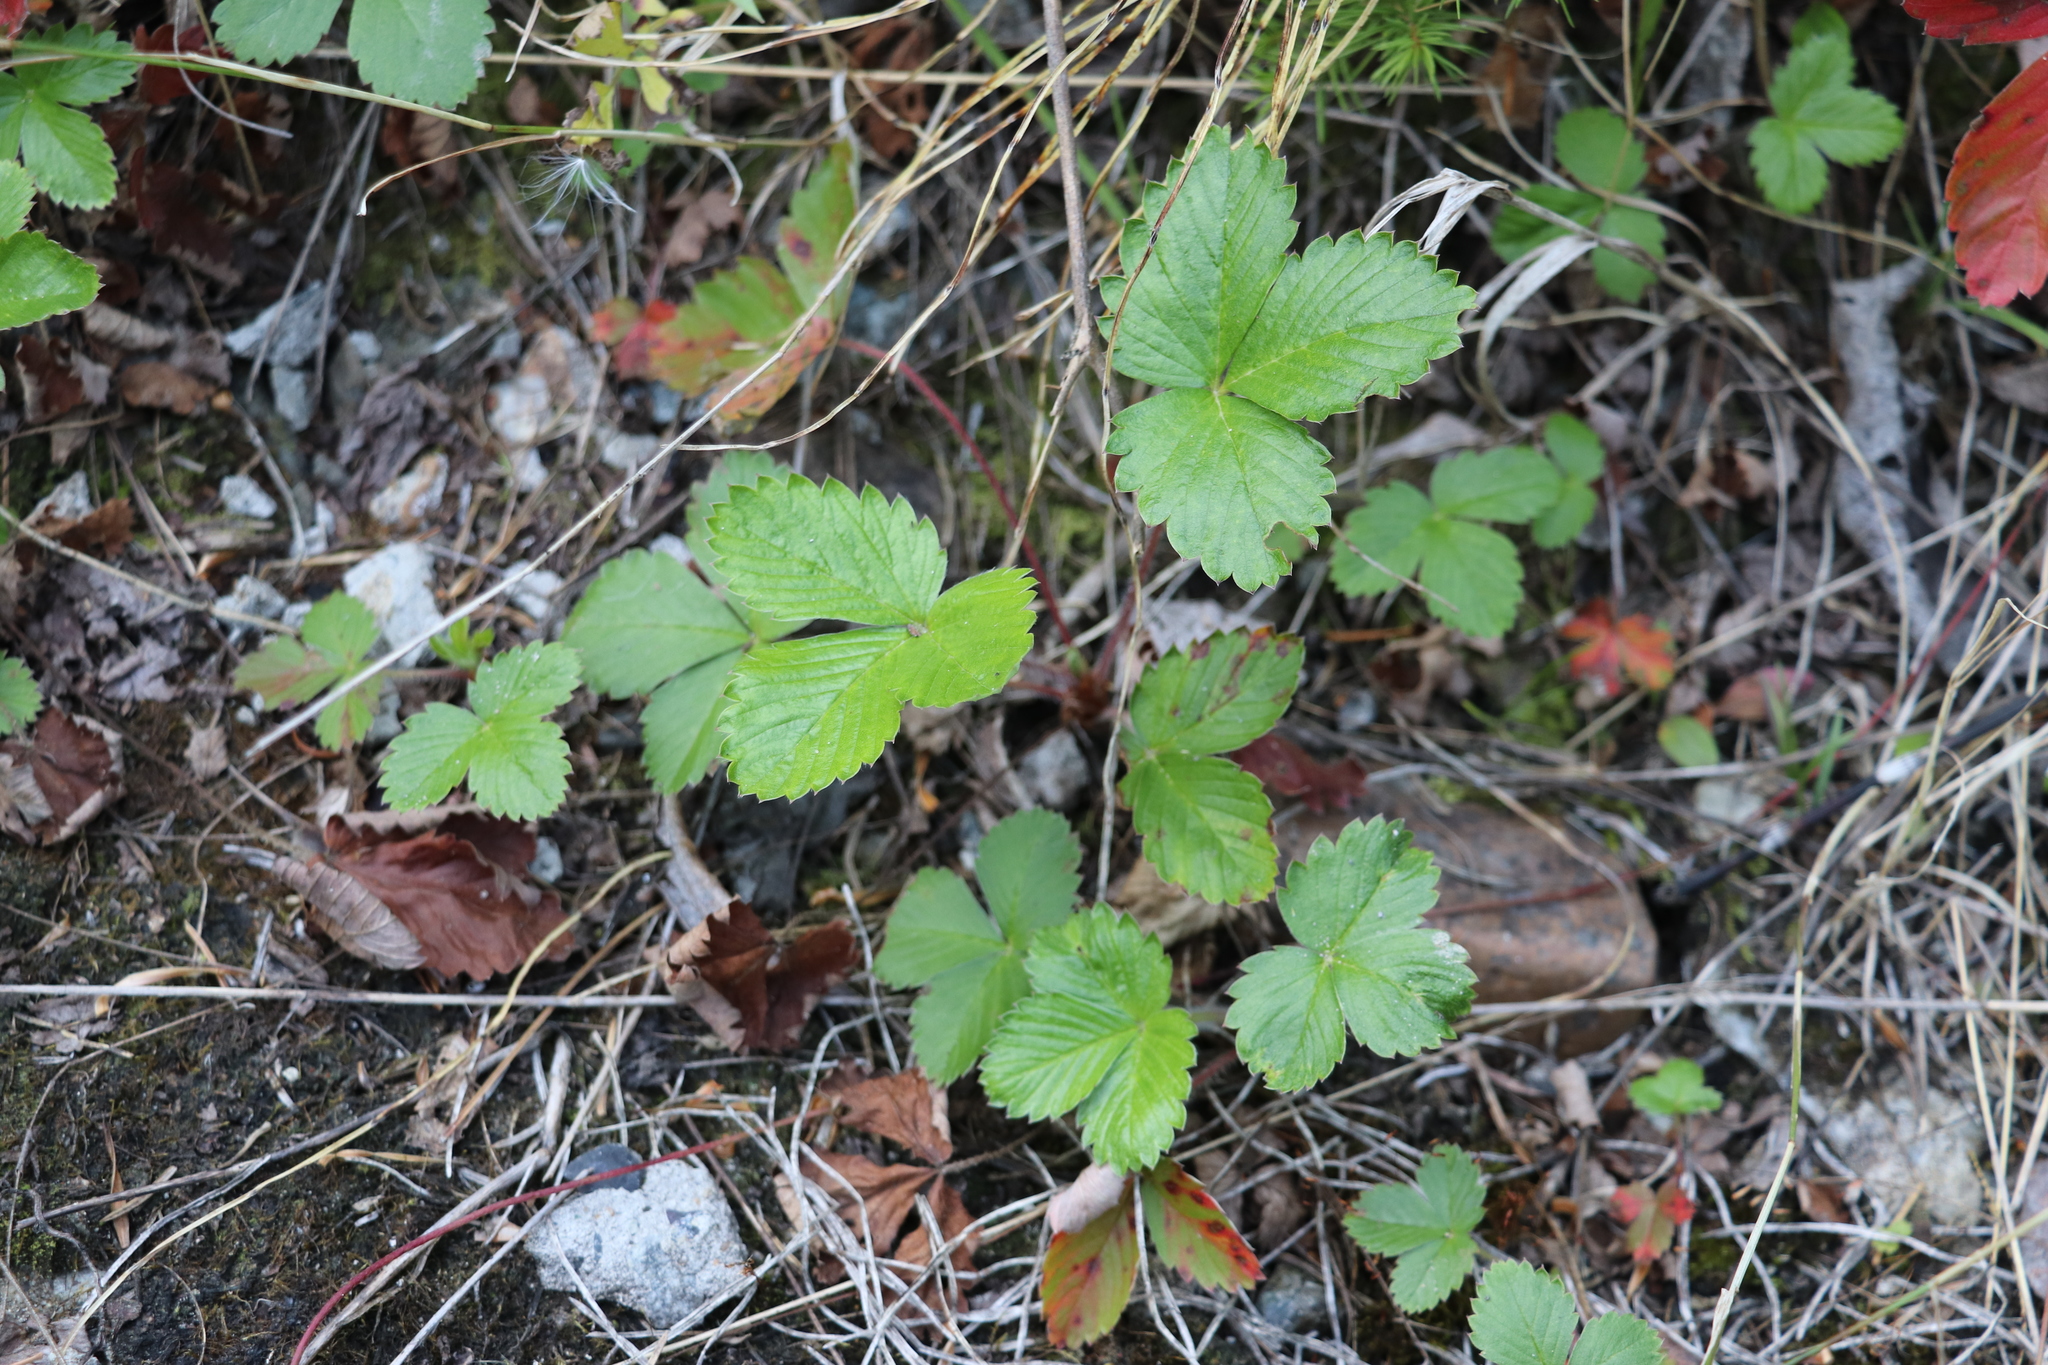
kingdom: Plantae
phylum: Tracheophyta
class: Magnoliopsida
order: Rosales
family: Rosaceae
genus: Fragaria
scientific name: Fragaria vesca
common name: Wild strawberry
